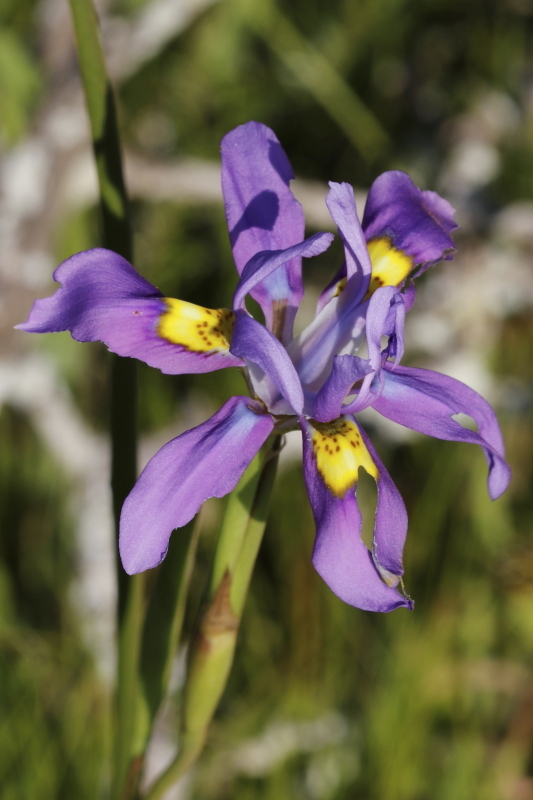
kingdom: Plantae
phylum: Tracheophyta
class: Liliopsida
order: Asparagales
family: Iridaceae
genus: Moraea
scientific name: Moraea fugax
